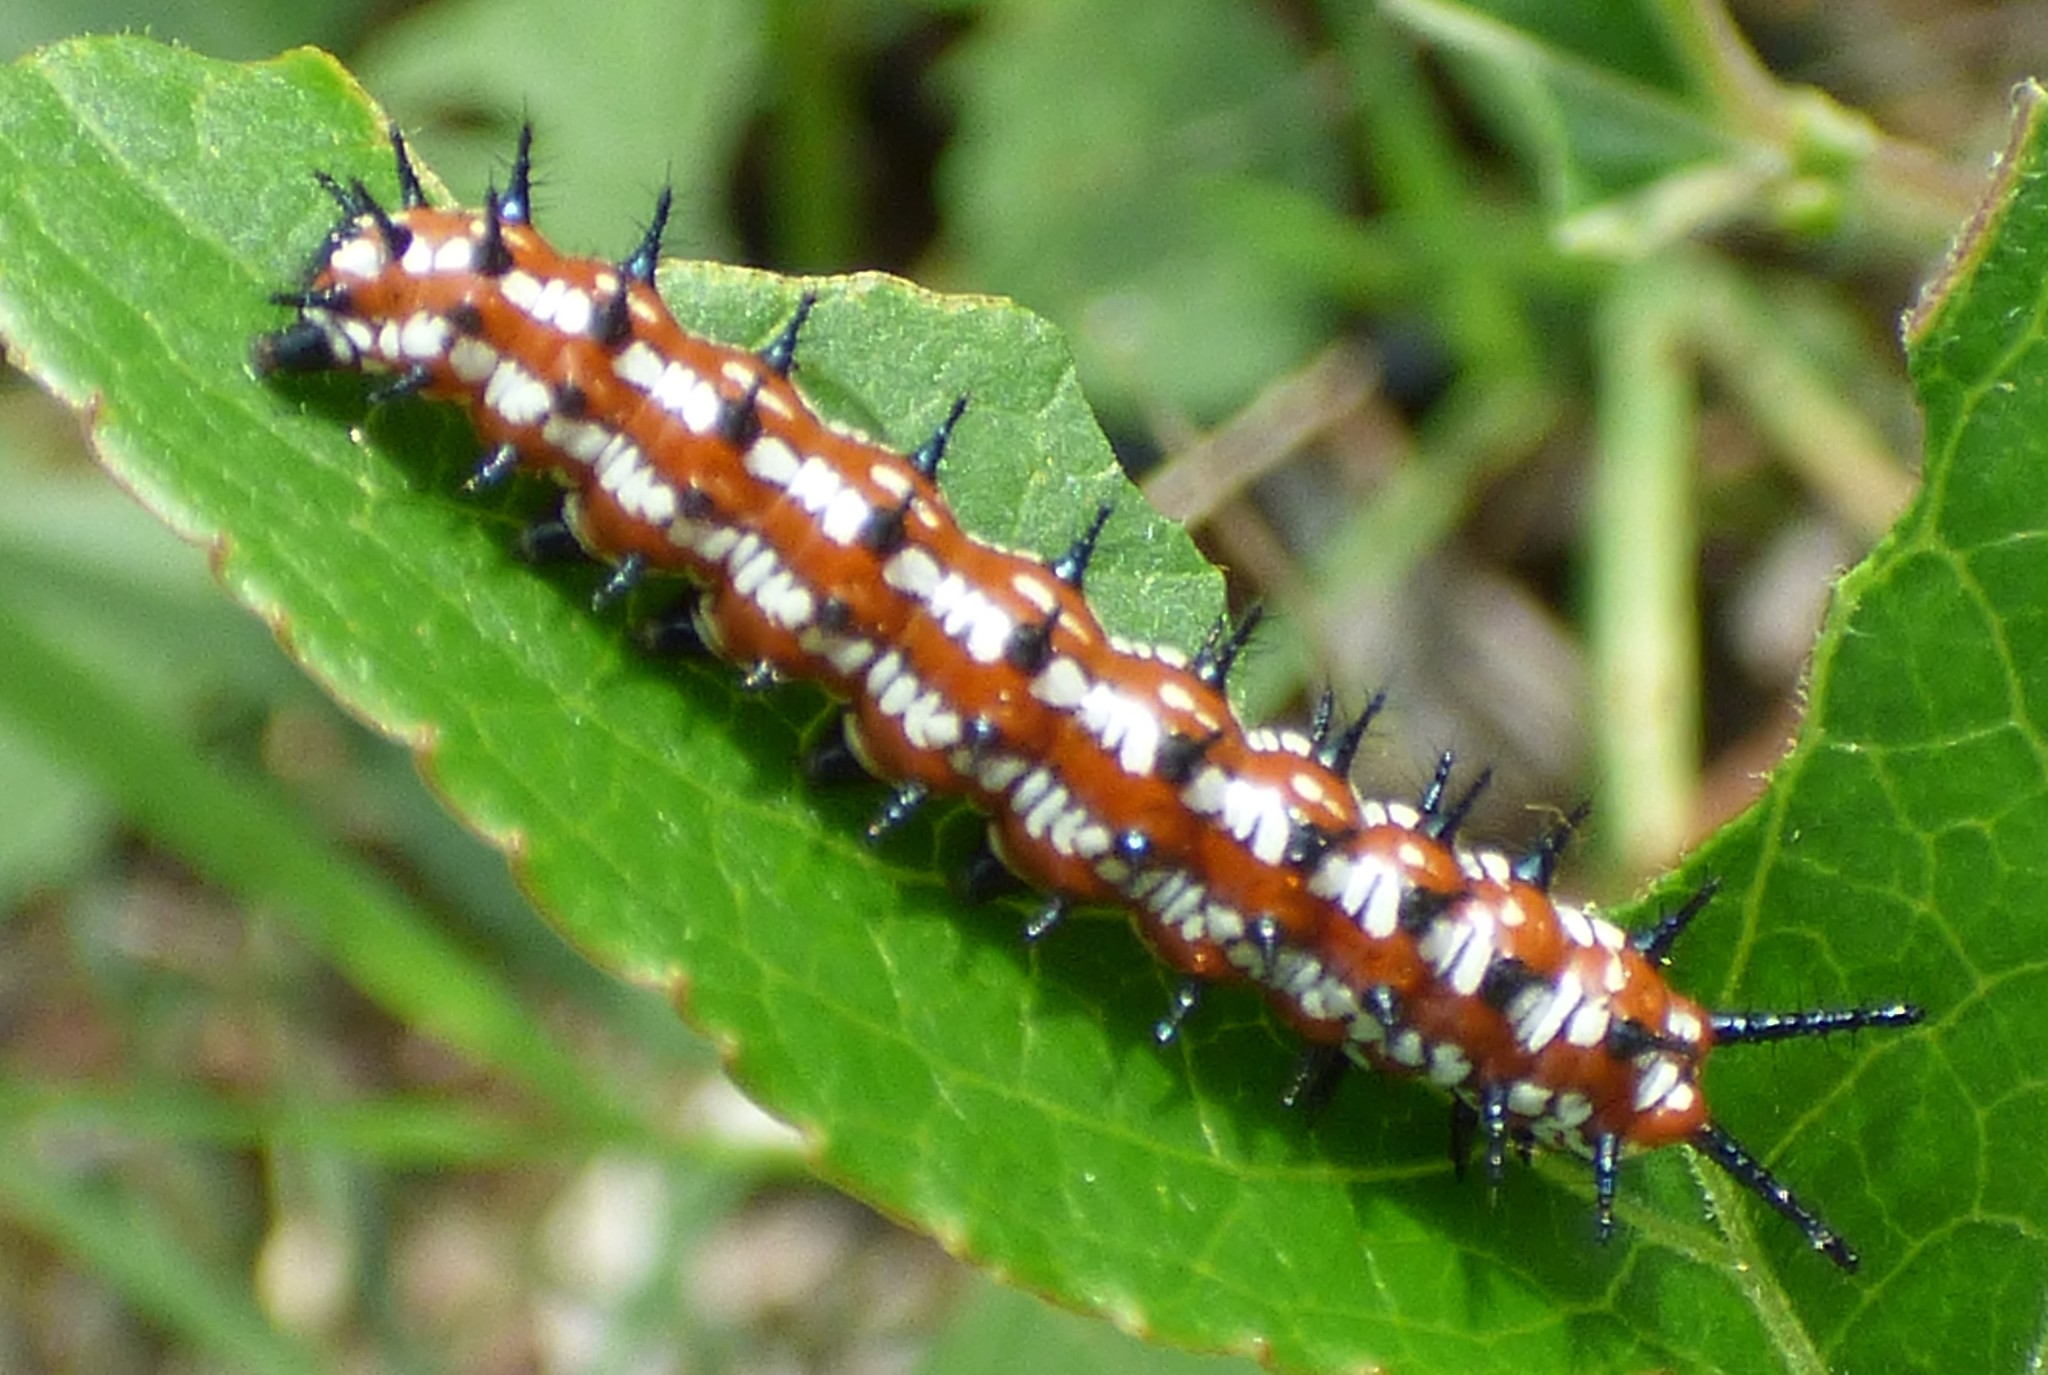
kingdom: Animalia
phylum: Arthropoda
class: Insecta
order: Lepidoptera
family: Nymphalidae
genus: Euptoieta
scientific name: Euptoieta claudia
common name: Variegated fritillary
